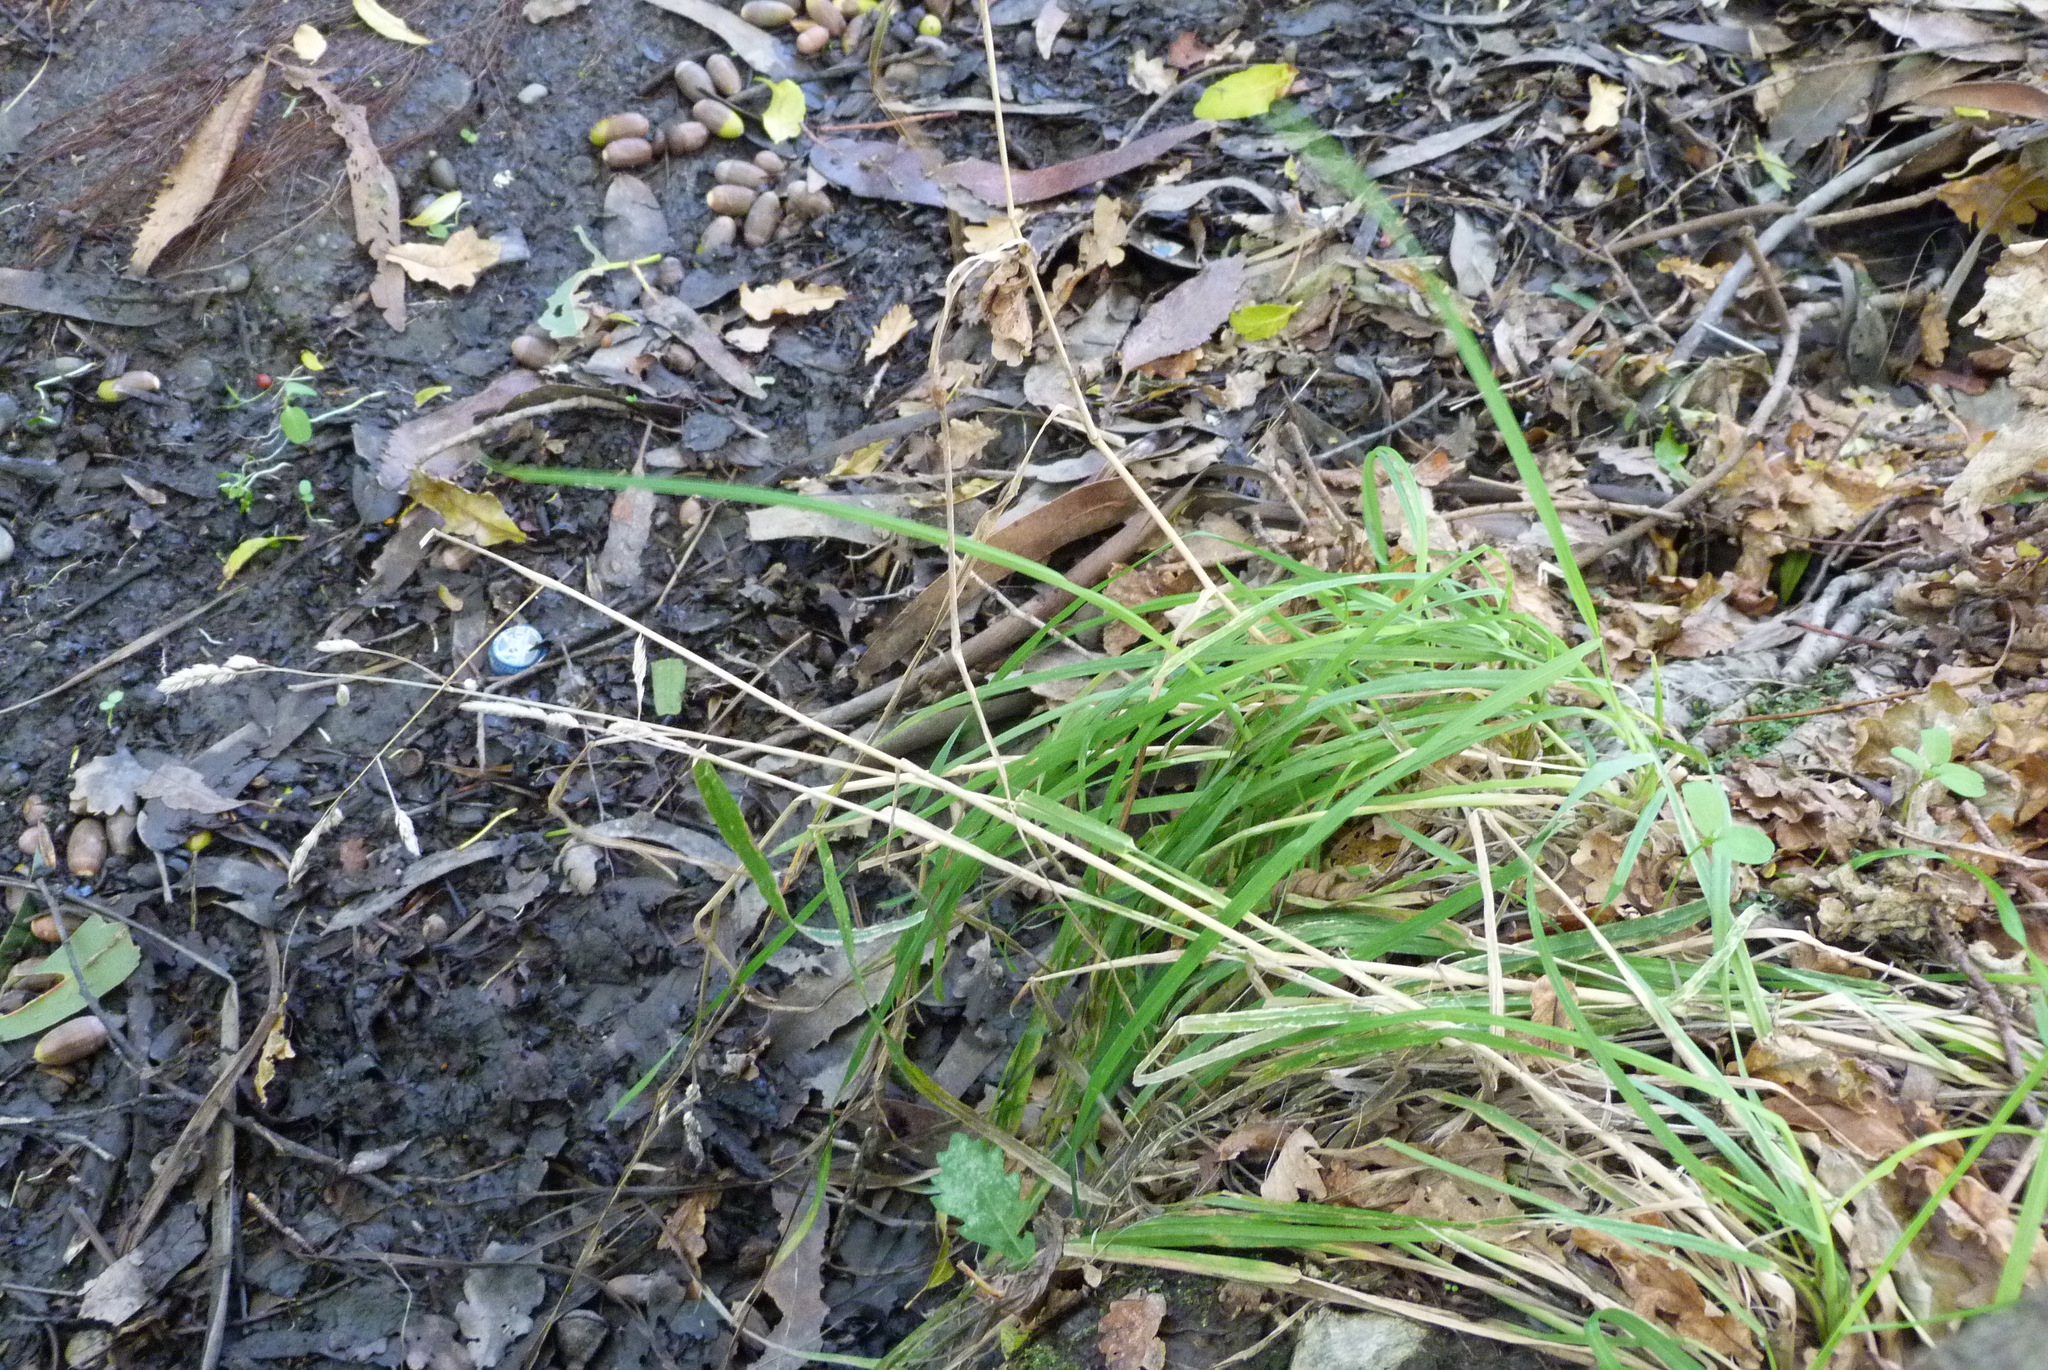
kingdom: Plantae
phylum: Tracheophyta
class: Liliopsida
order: Poales
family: Poaceae
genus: Dactylis
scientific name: Dactylis glomerata
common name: Orchardgrass
